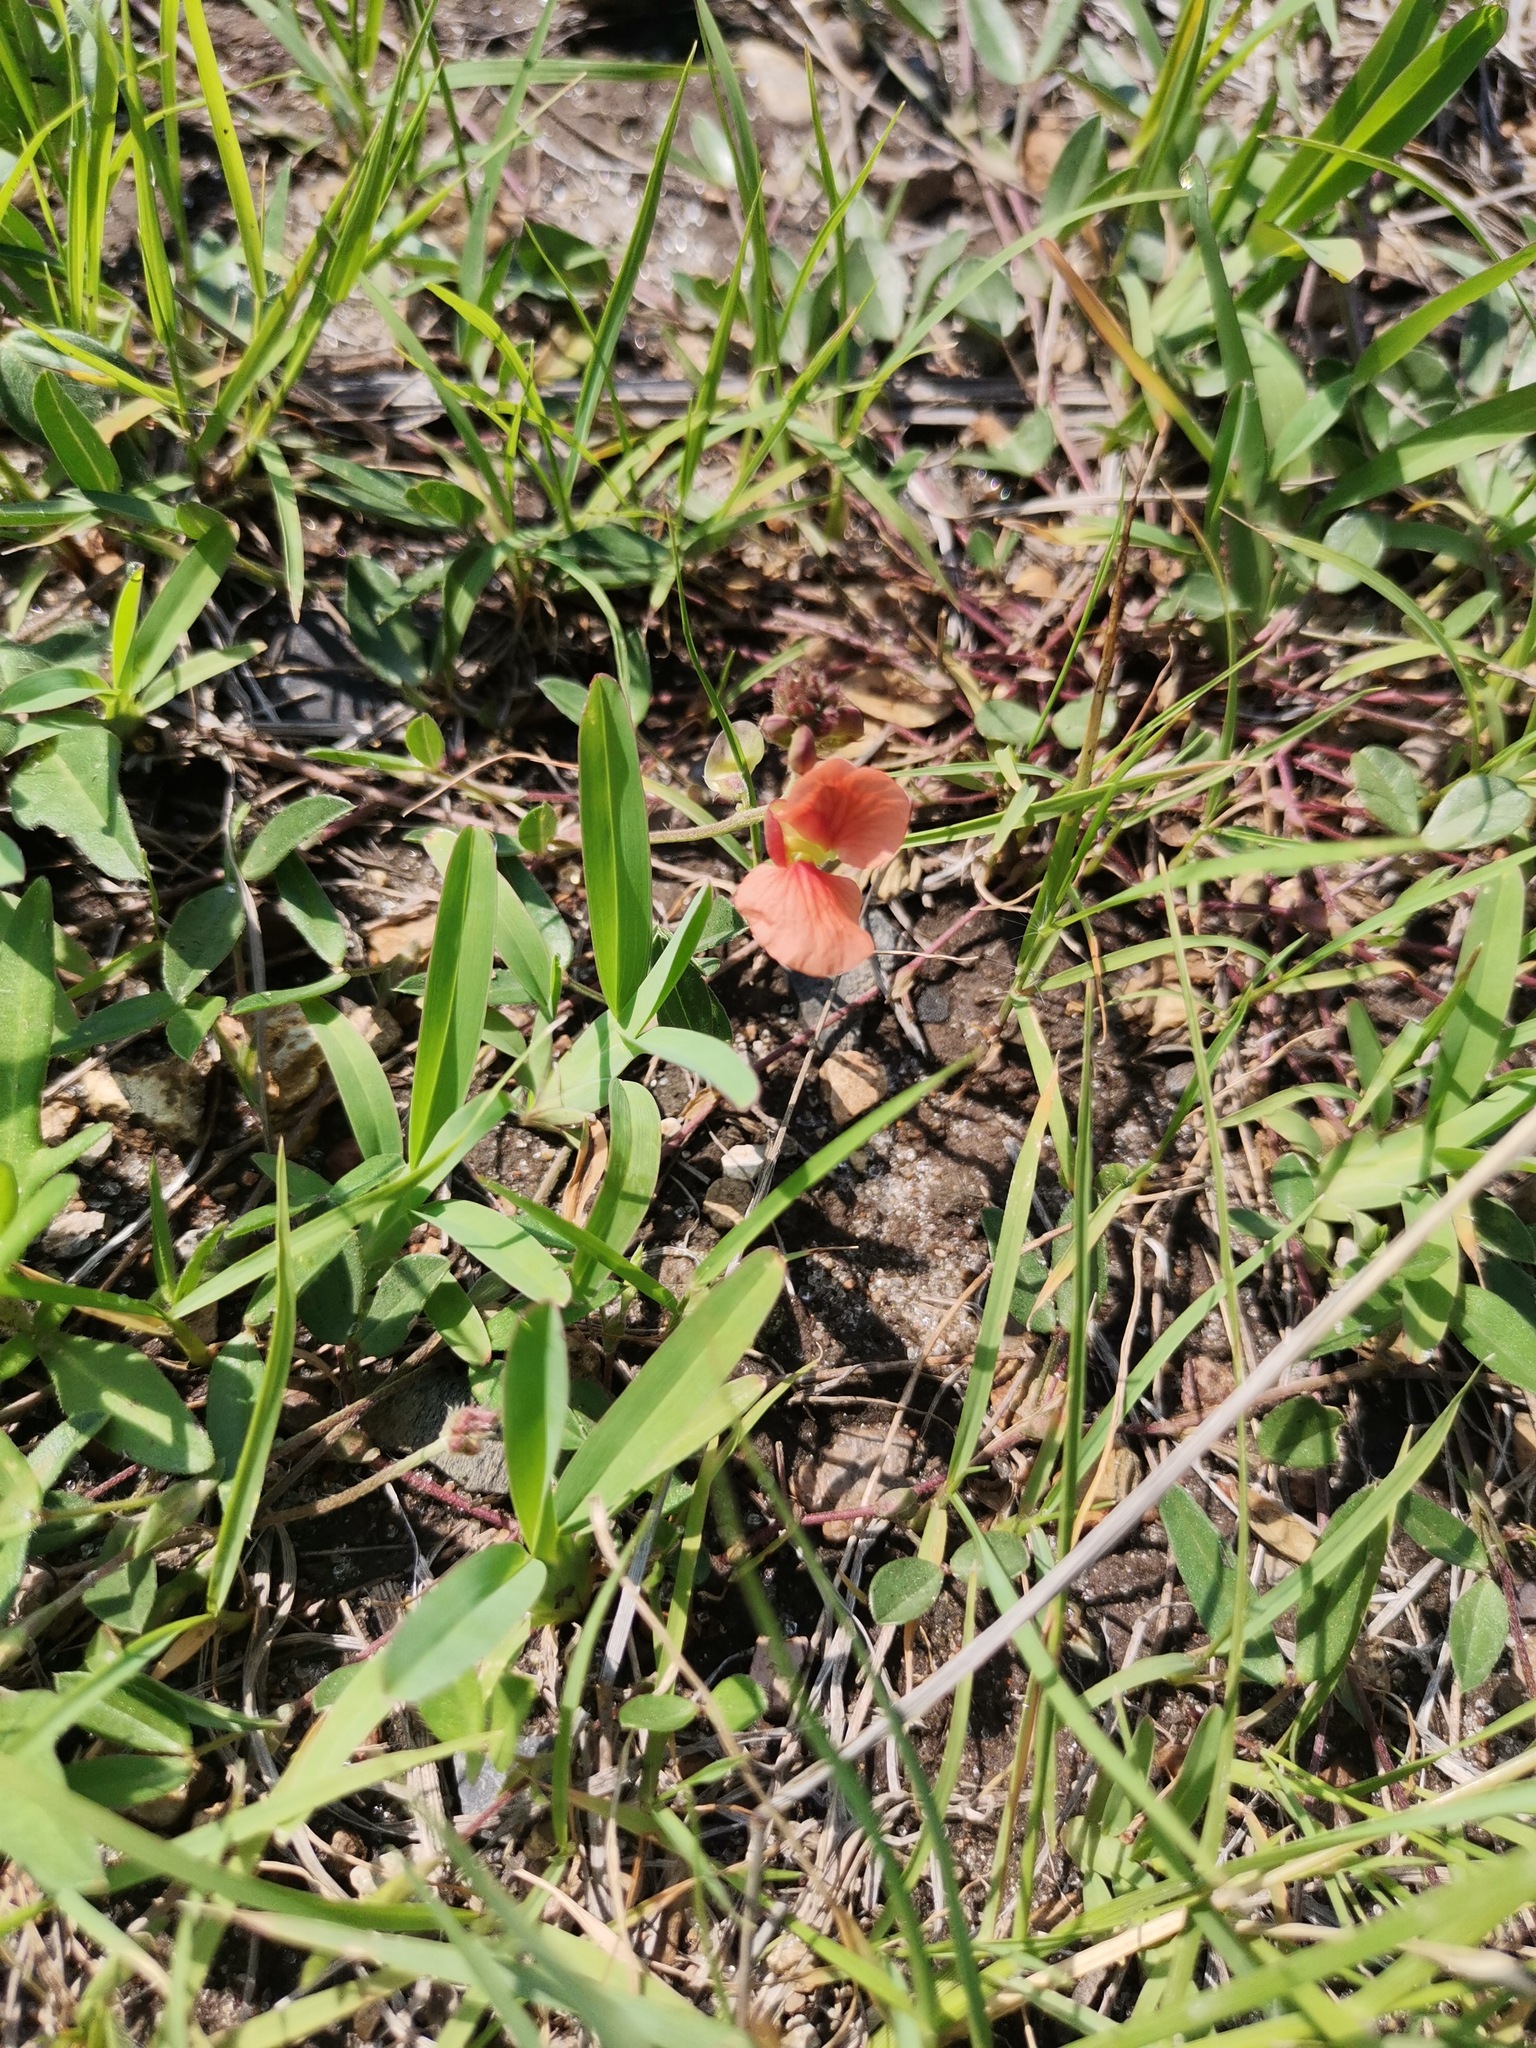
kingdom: Plantae
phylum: Tracheophyta
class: Magnoliopsida
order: Fabales
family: Fabaceae
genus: Macroptilium
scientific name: Macroptilium gibbosifolium
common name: Variableleaf bushbean
